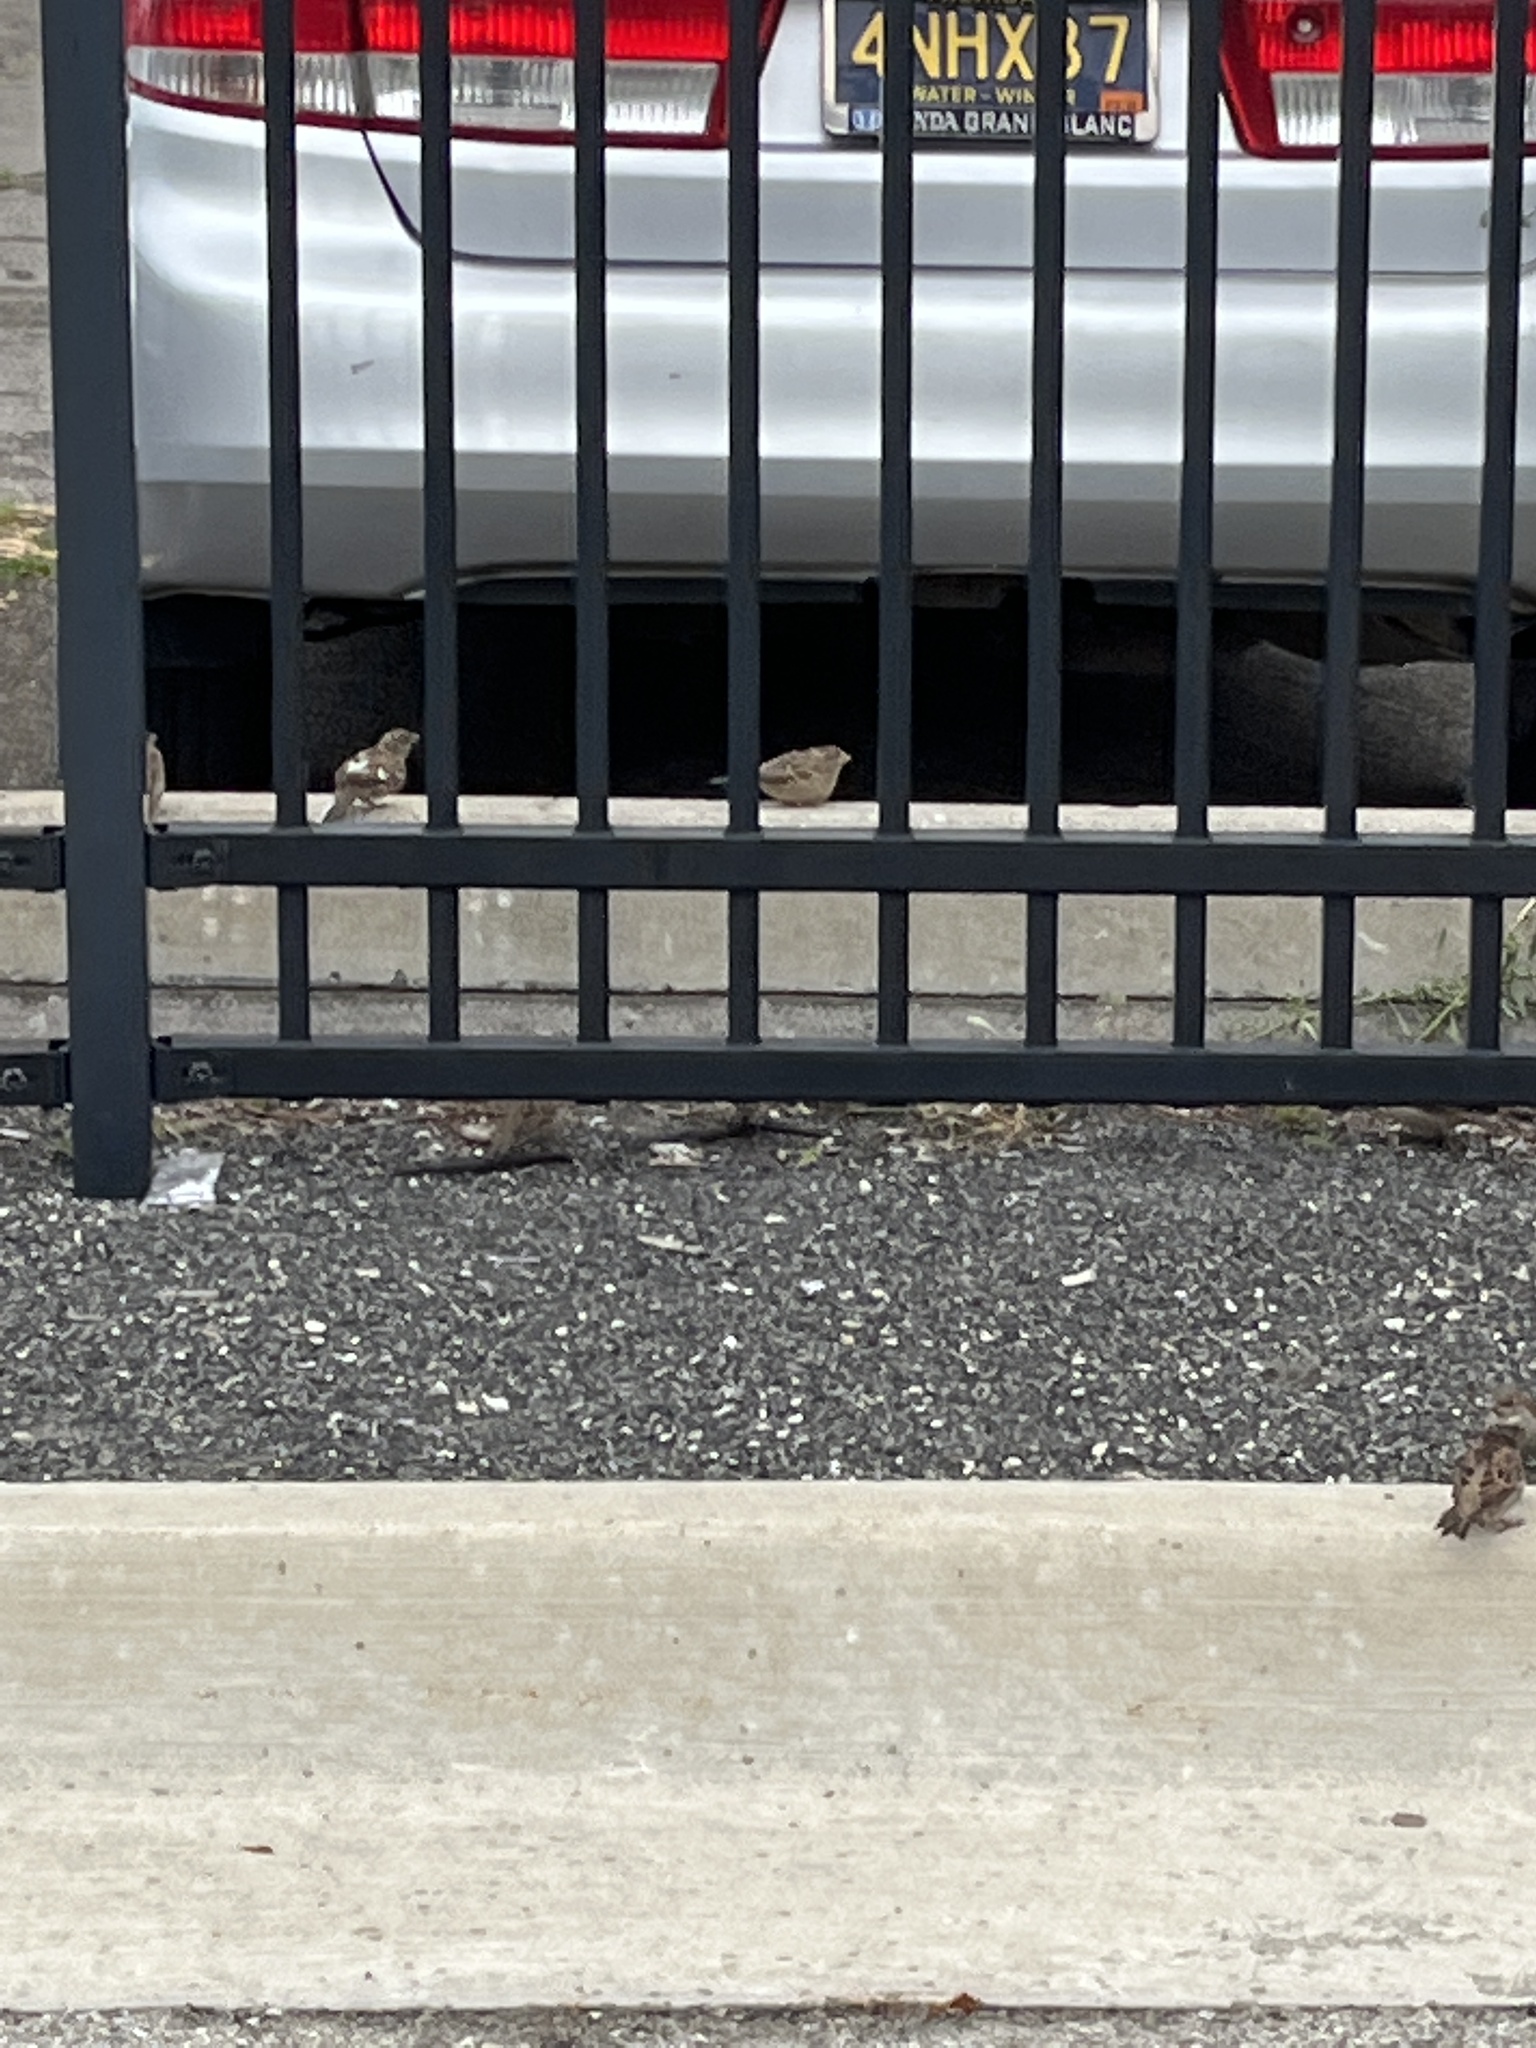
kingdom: Animalia
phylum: Chordata
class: Aves
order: Passeriformes
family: Passeridae
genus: Passer
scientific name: Passer domesticus
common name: House sparrow
